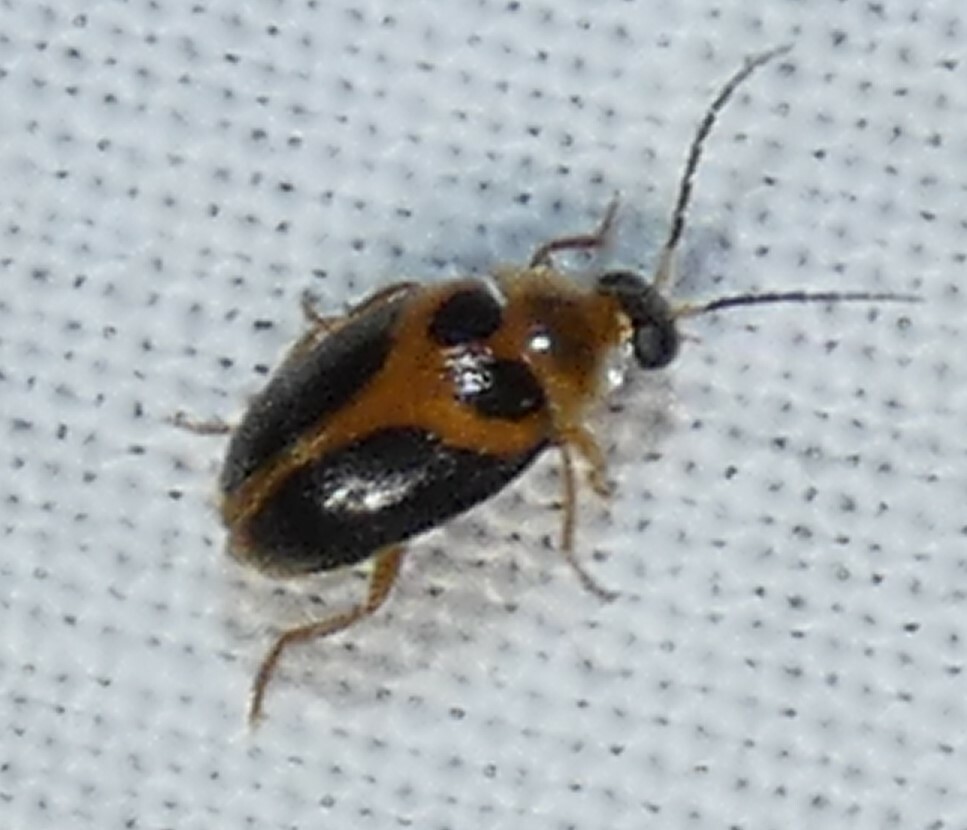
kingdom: Animalia
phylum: Arthropoda
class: Insecta
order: Coleoptera
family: Scirtidae
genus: Sacodes
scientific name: Sacodes pulchella
